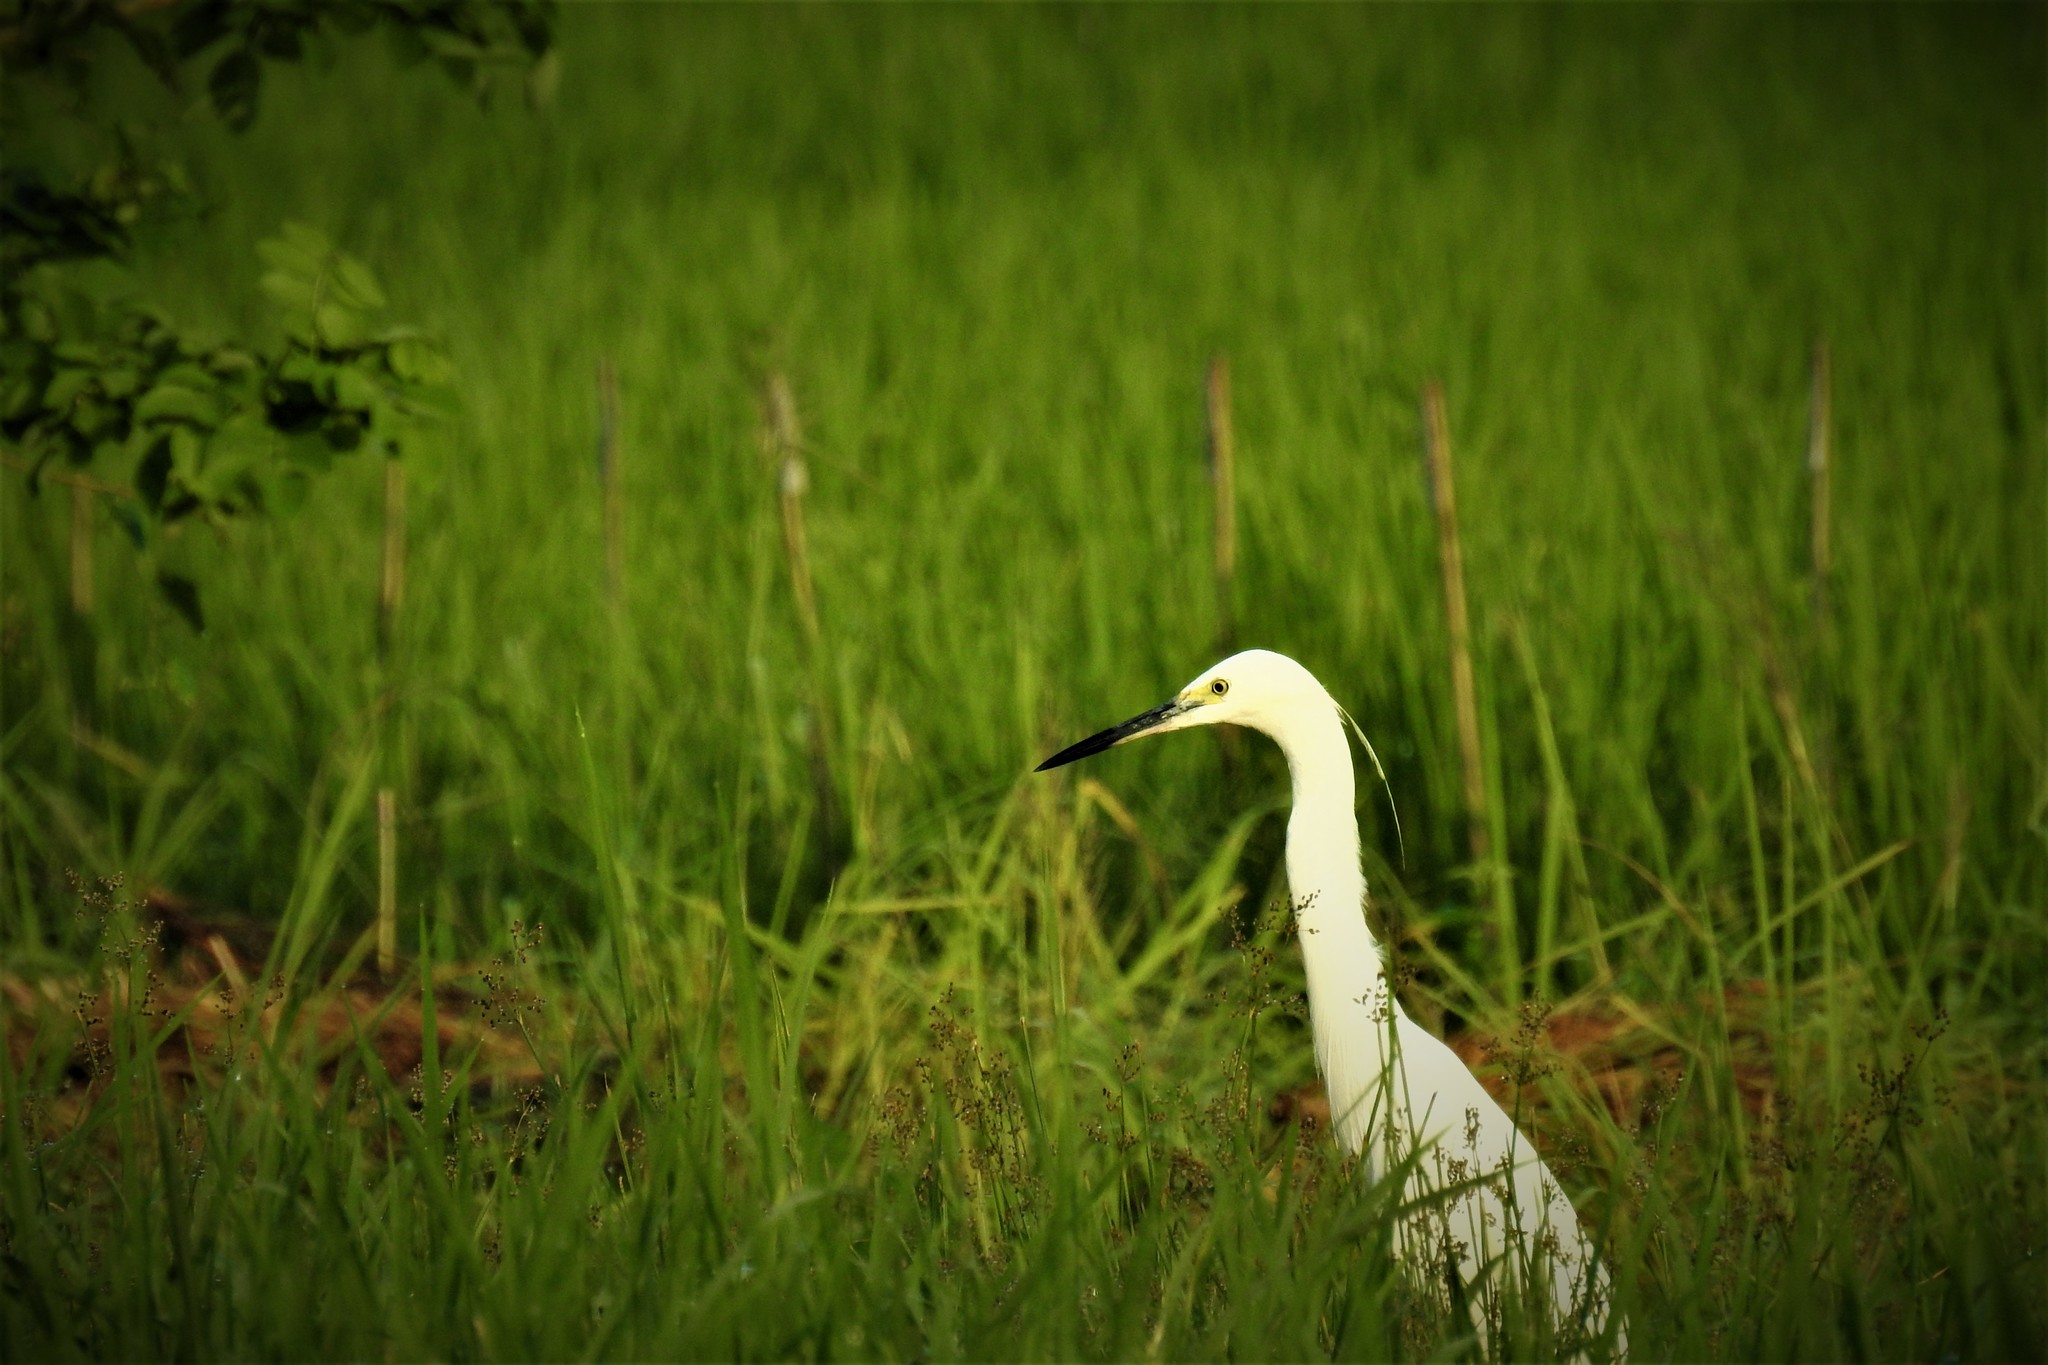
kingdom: Animalia
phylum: Chordata
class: Aves
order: Pelecaniformes
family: Ardeidae
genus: Egretta
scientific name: Egretta garzetta
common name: Little egret
